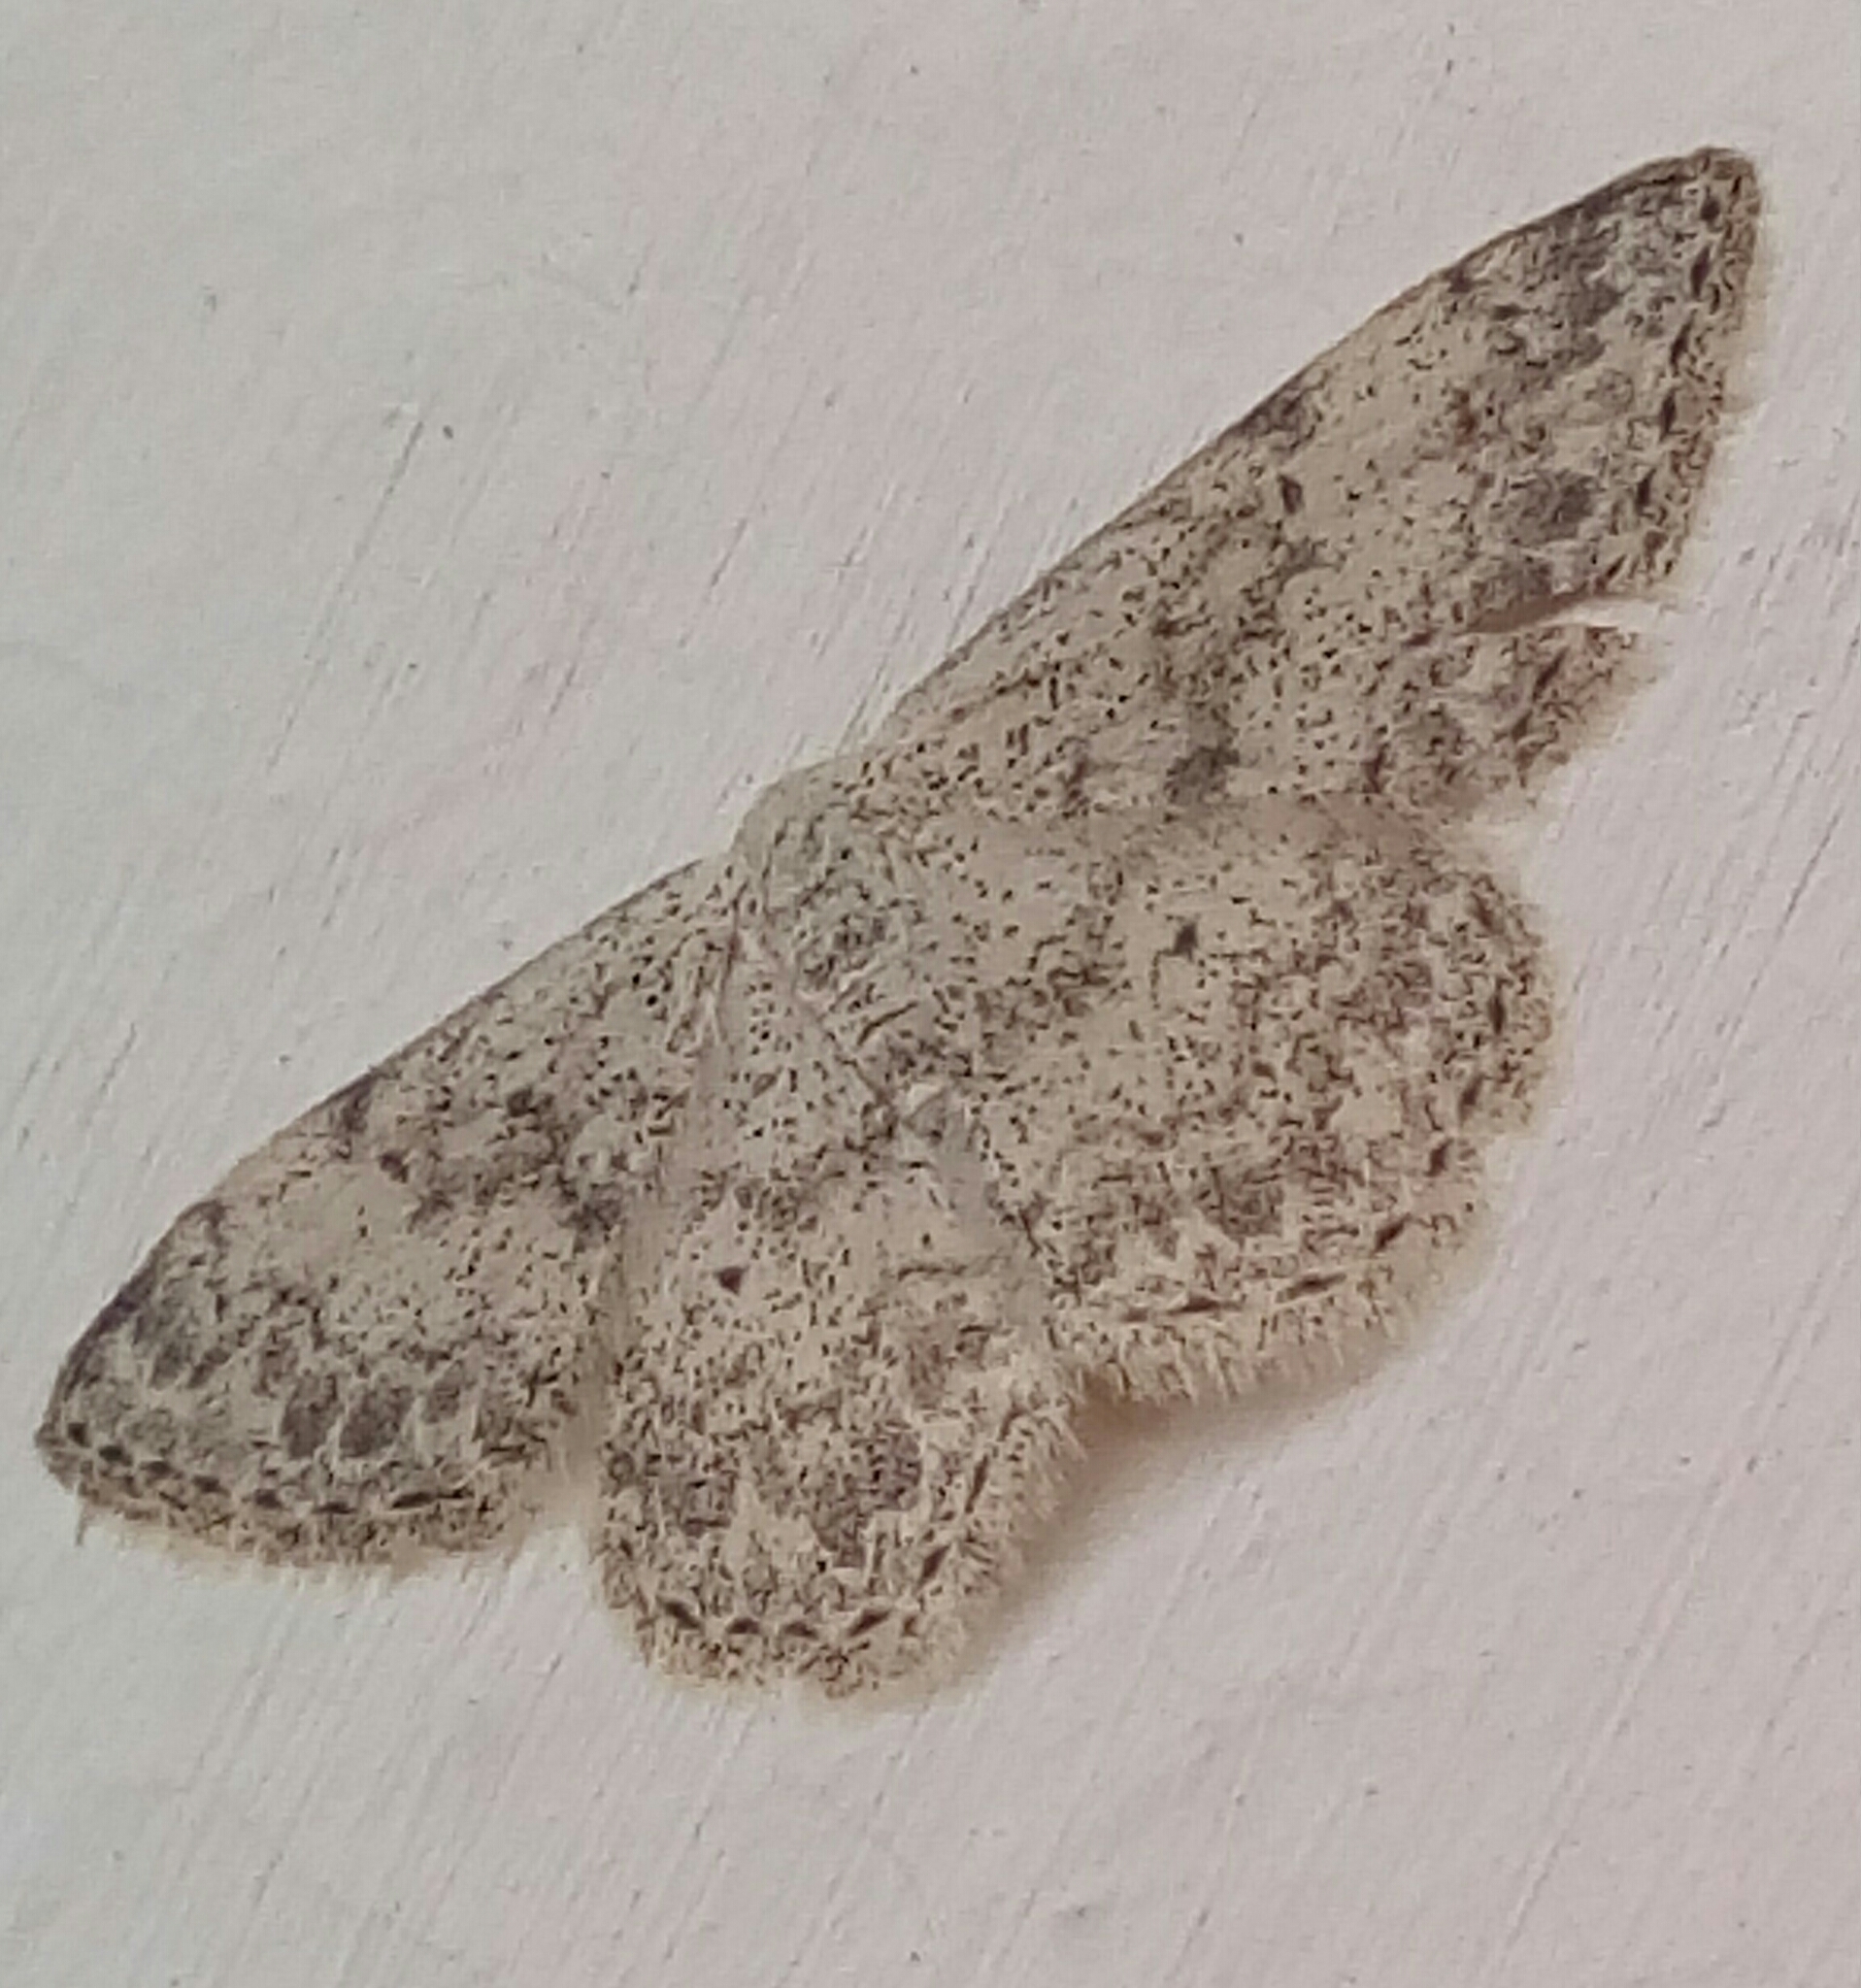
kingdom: Animalia
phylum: Arthropoda
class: Insecta
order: Lepidoptera
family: Geometridae
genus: Scopula
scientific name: Scopula marginepunctata
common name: Mullein wave
